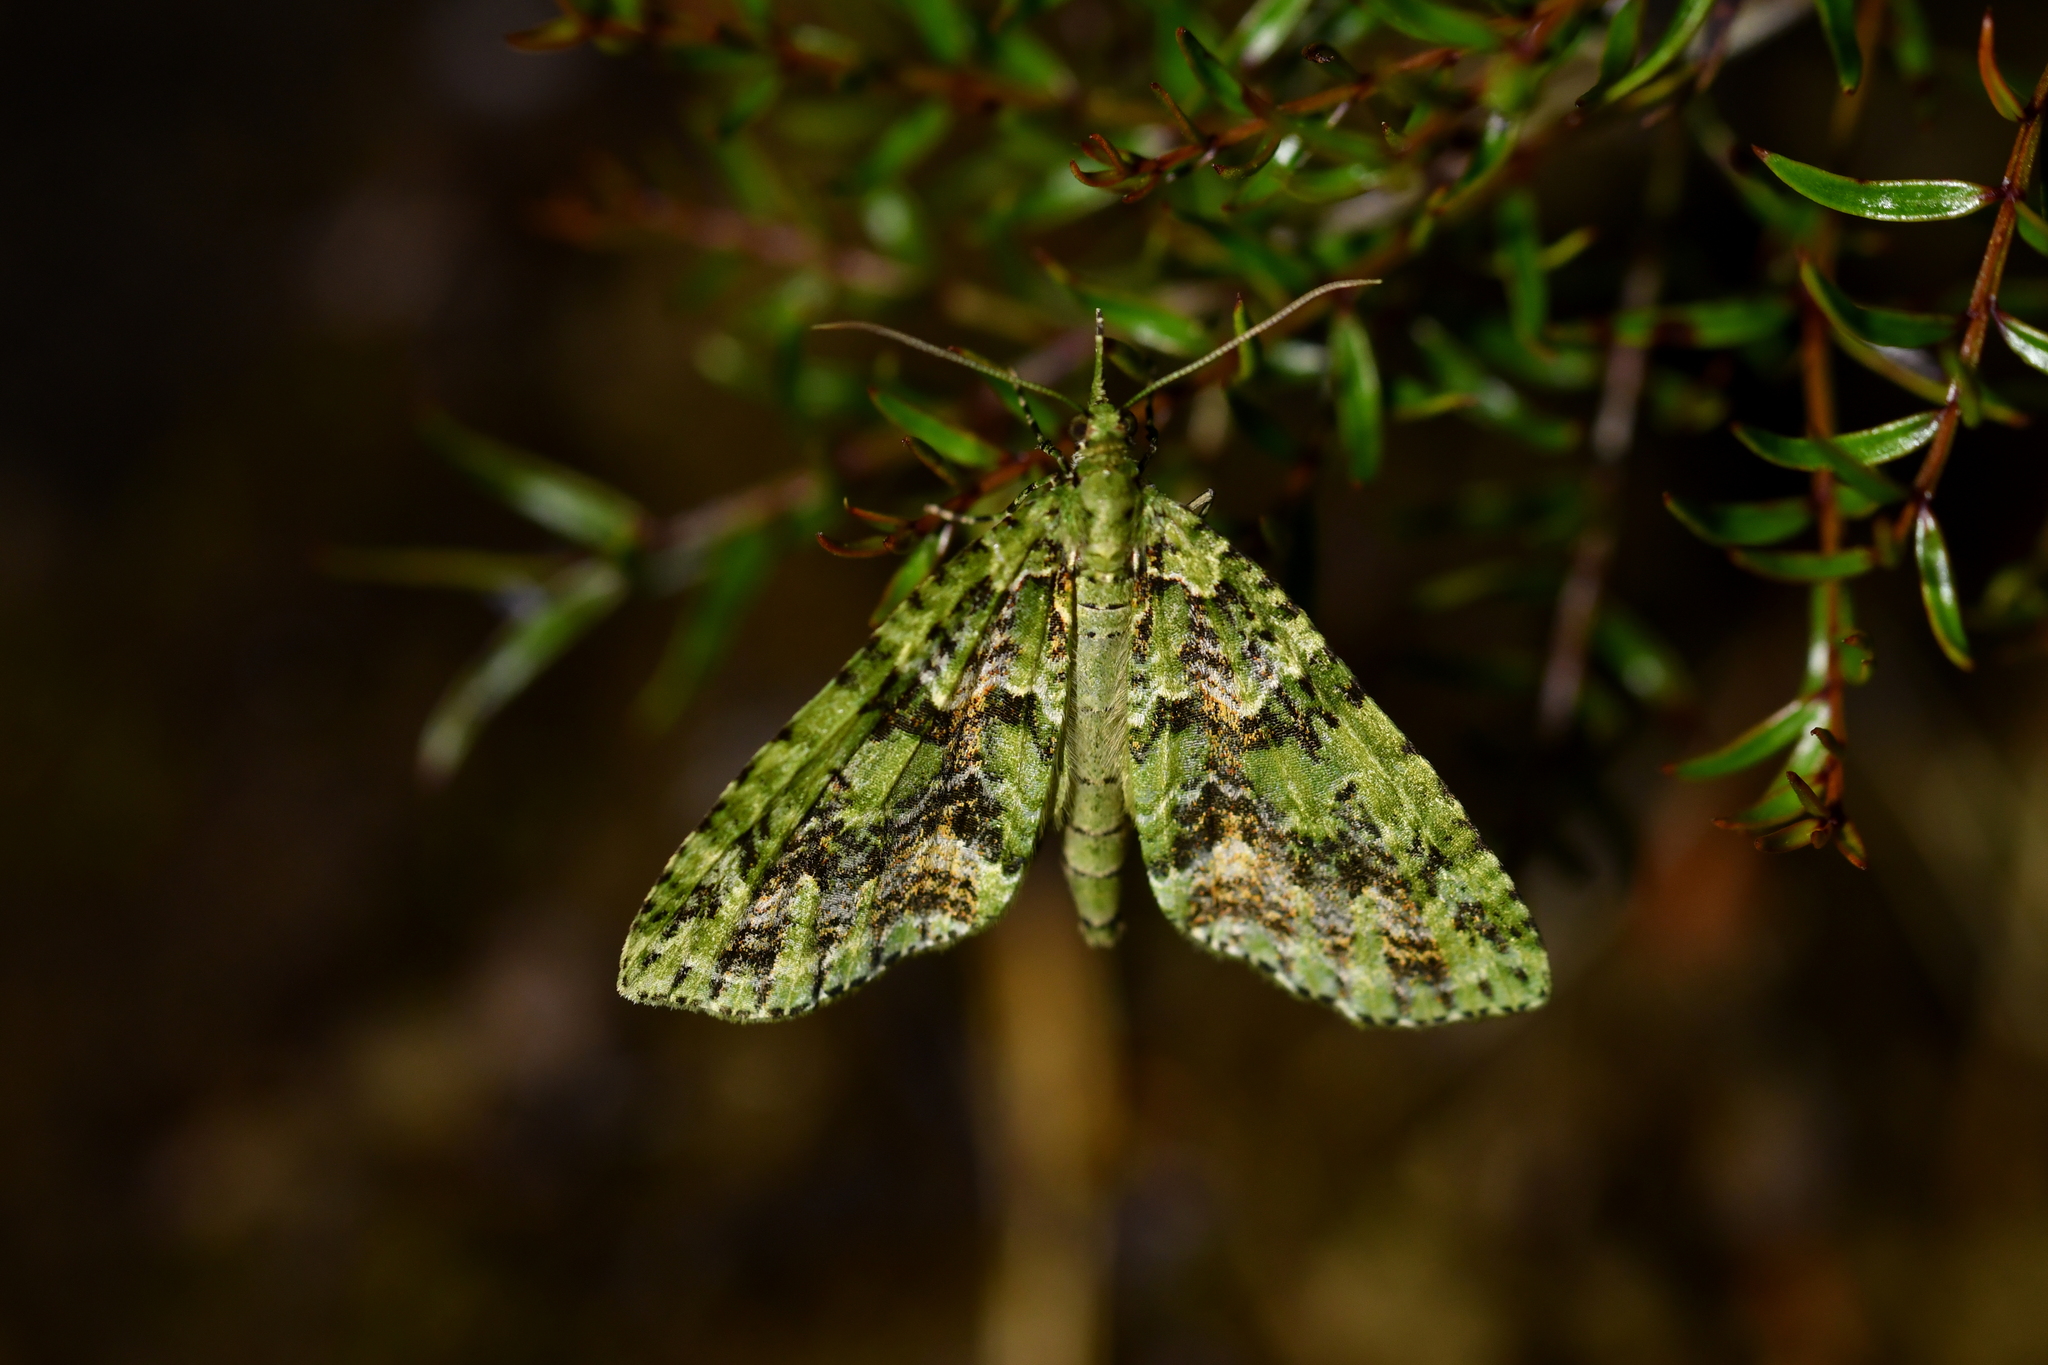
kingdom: Animalia
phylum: Arthropoda
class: Insecta
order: Lepidoptera
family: Geometridae
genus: Tatosoma
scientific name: Tatosoma tipulata
